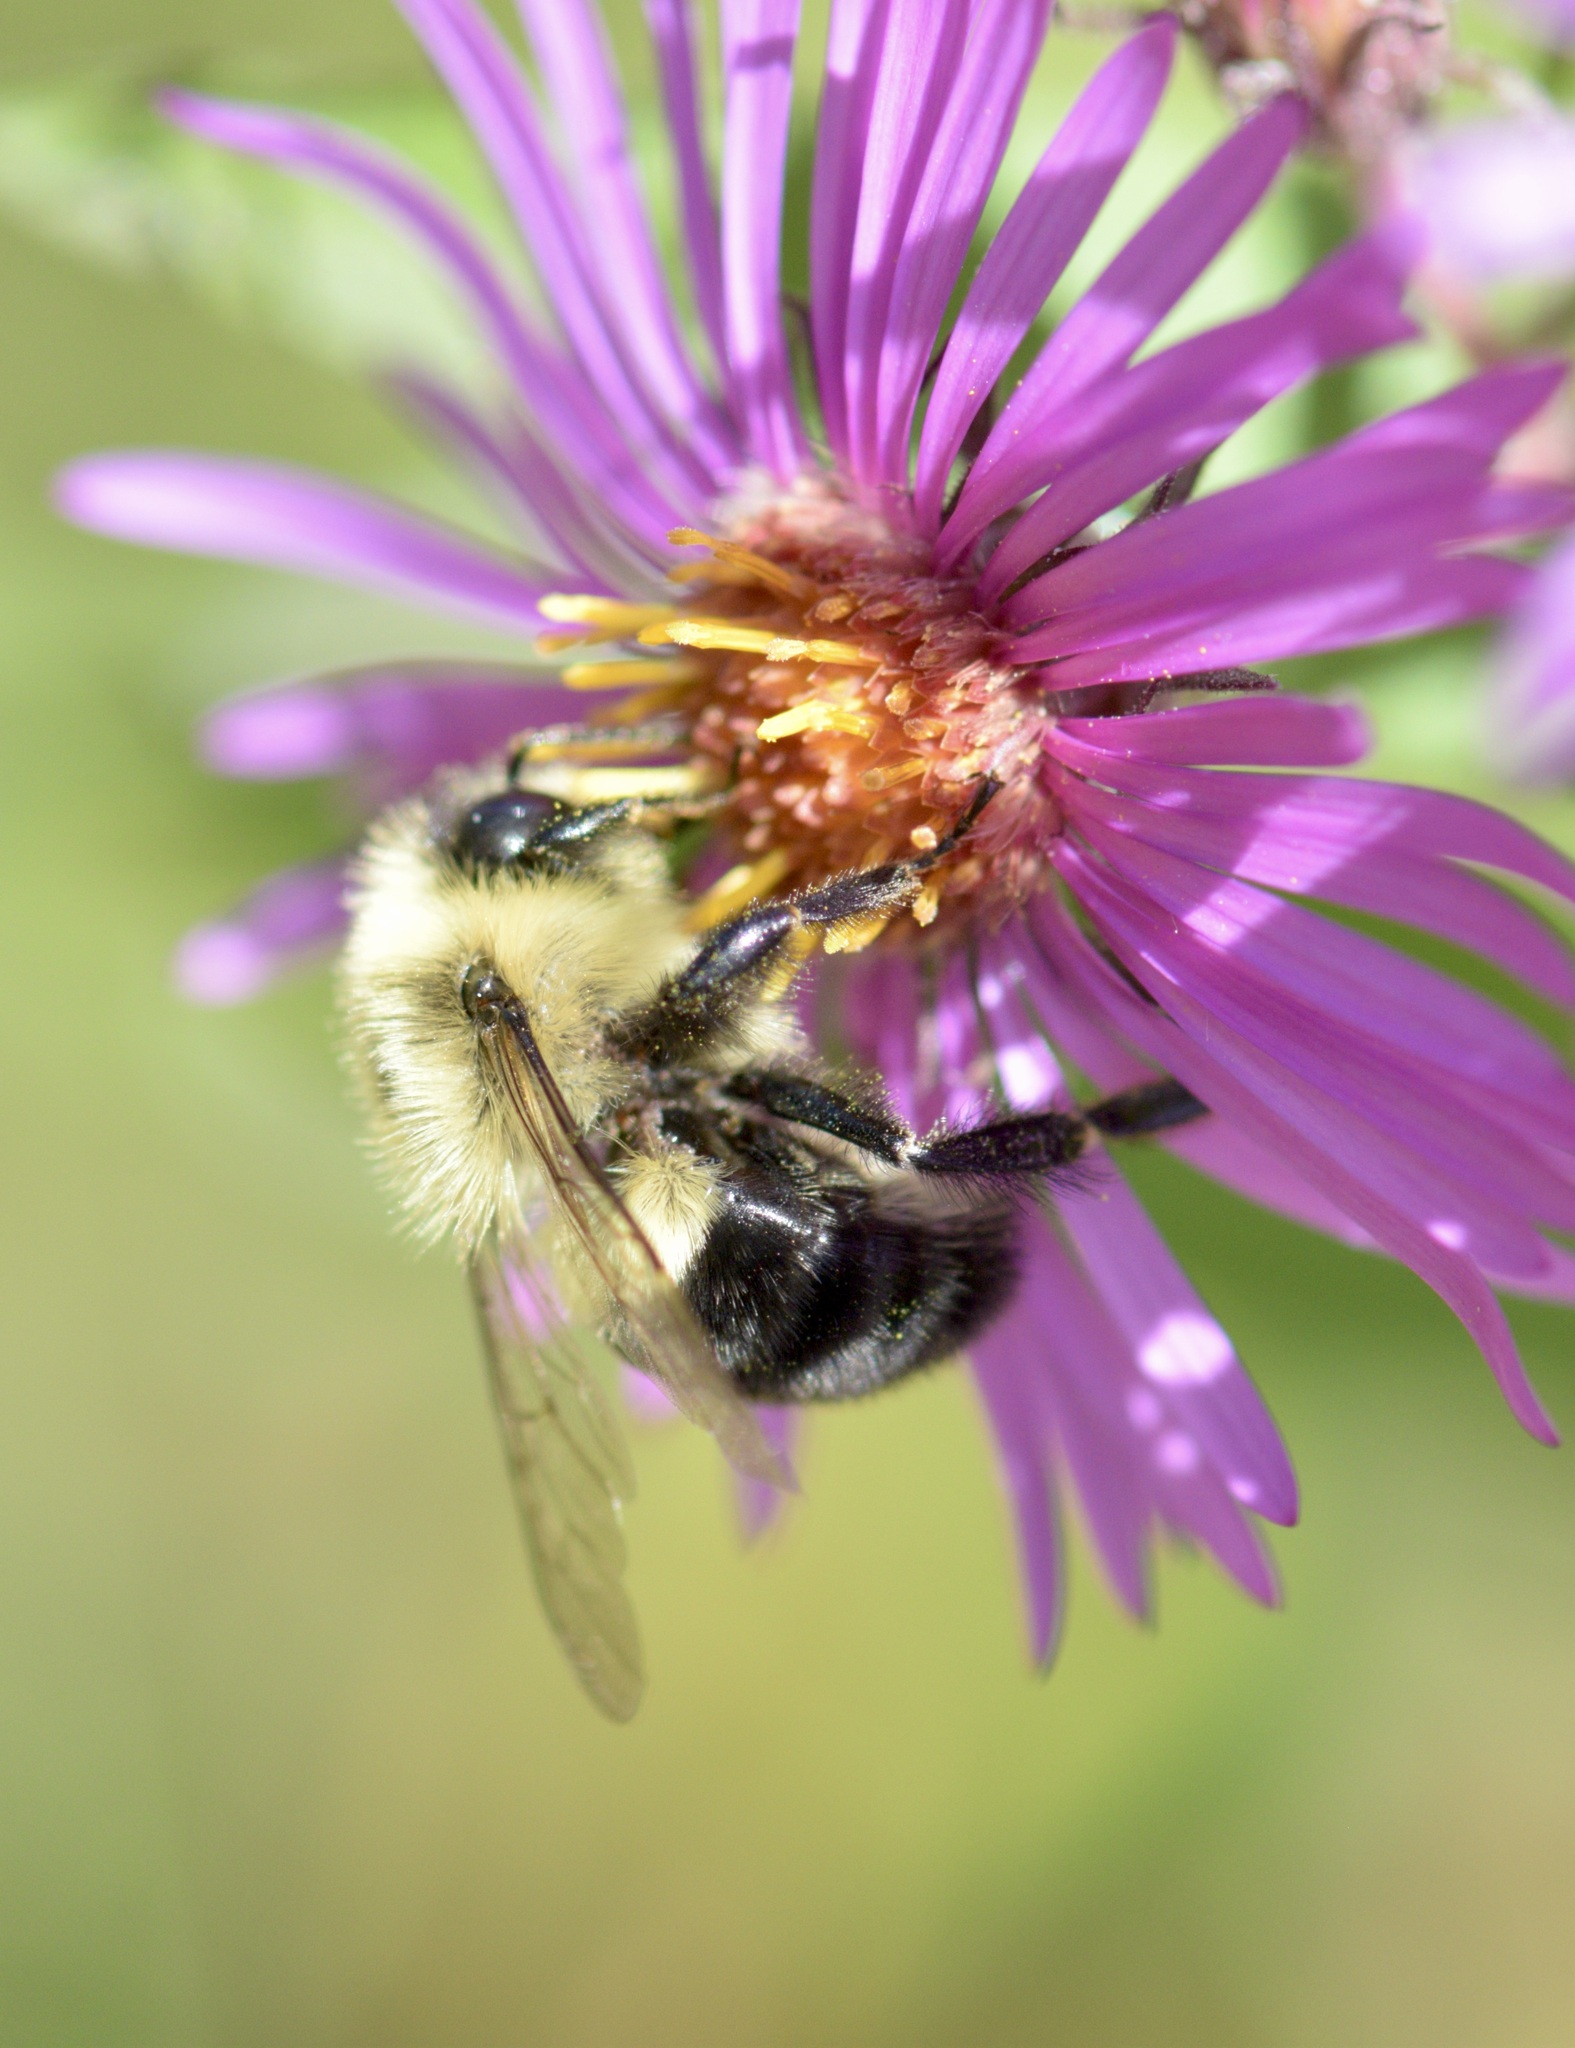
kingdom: Animalia
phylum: Arthropoda
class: Insecta
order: Hymenoptera
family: Apidae
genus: Bombus
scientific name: Bombus impatiens
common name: Common eastern bumble bee
